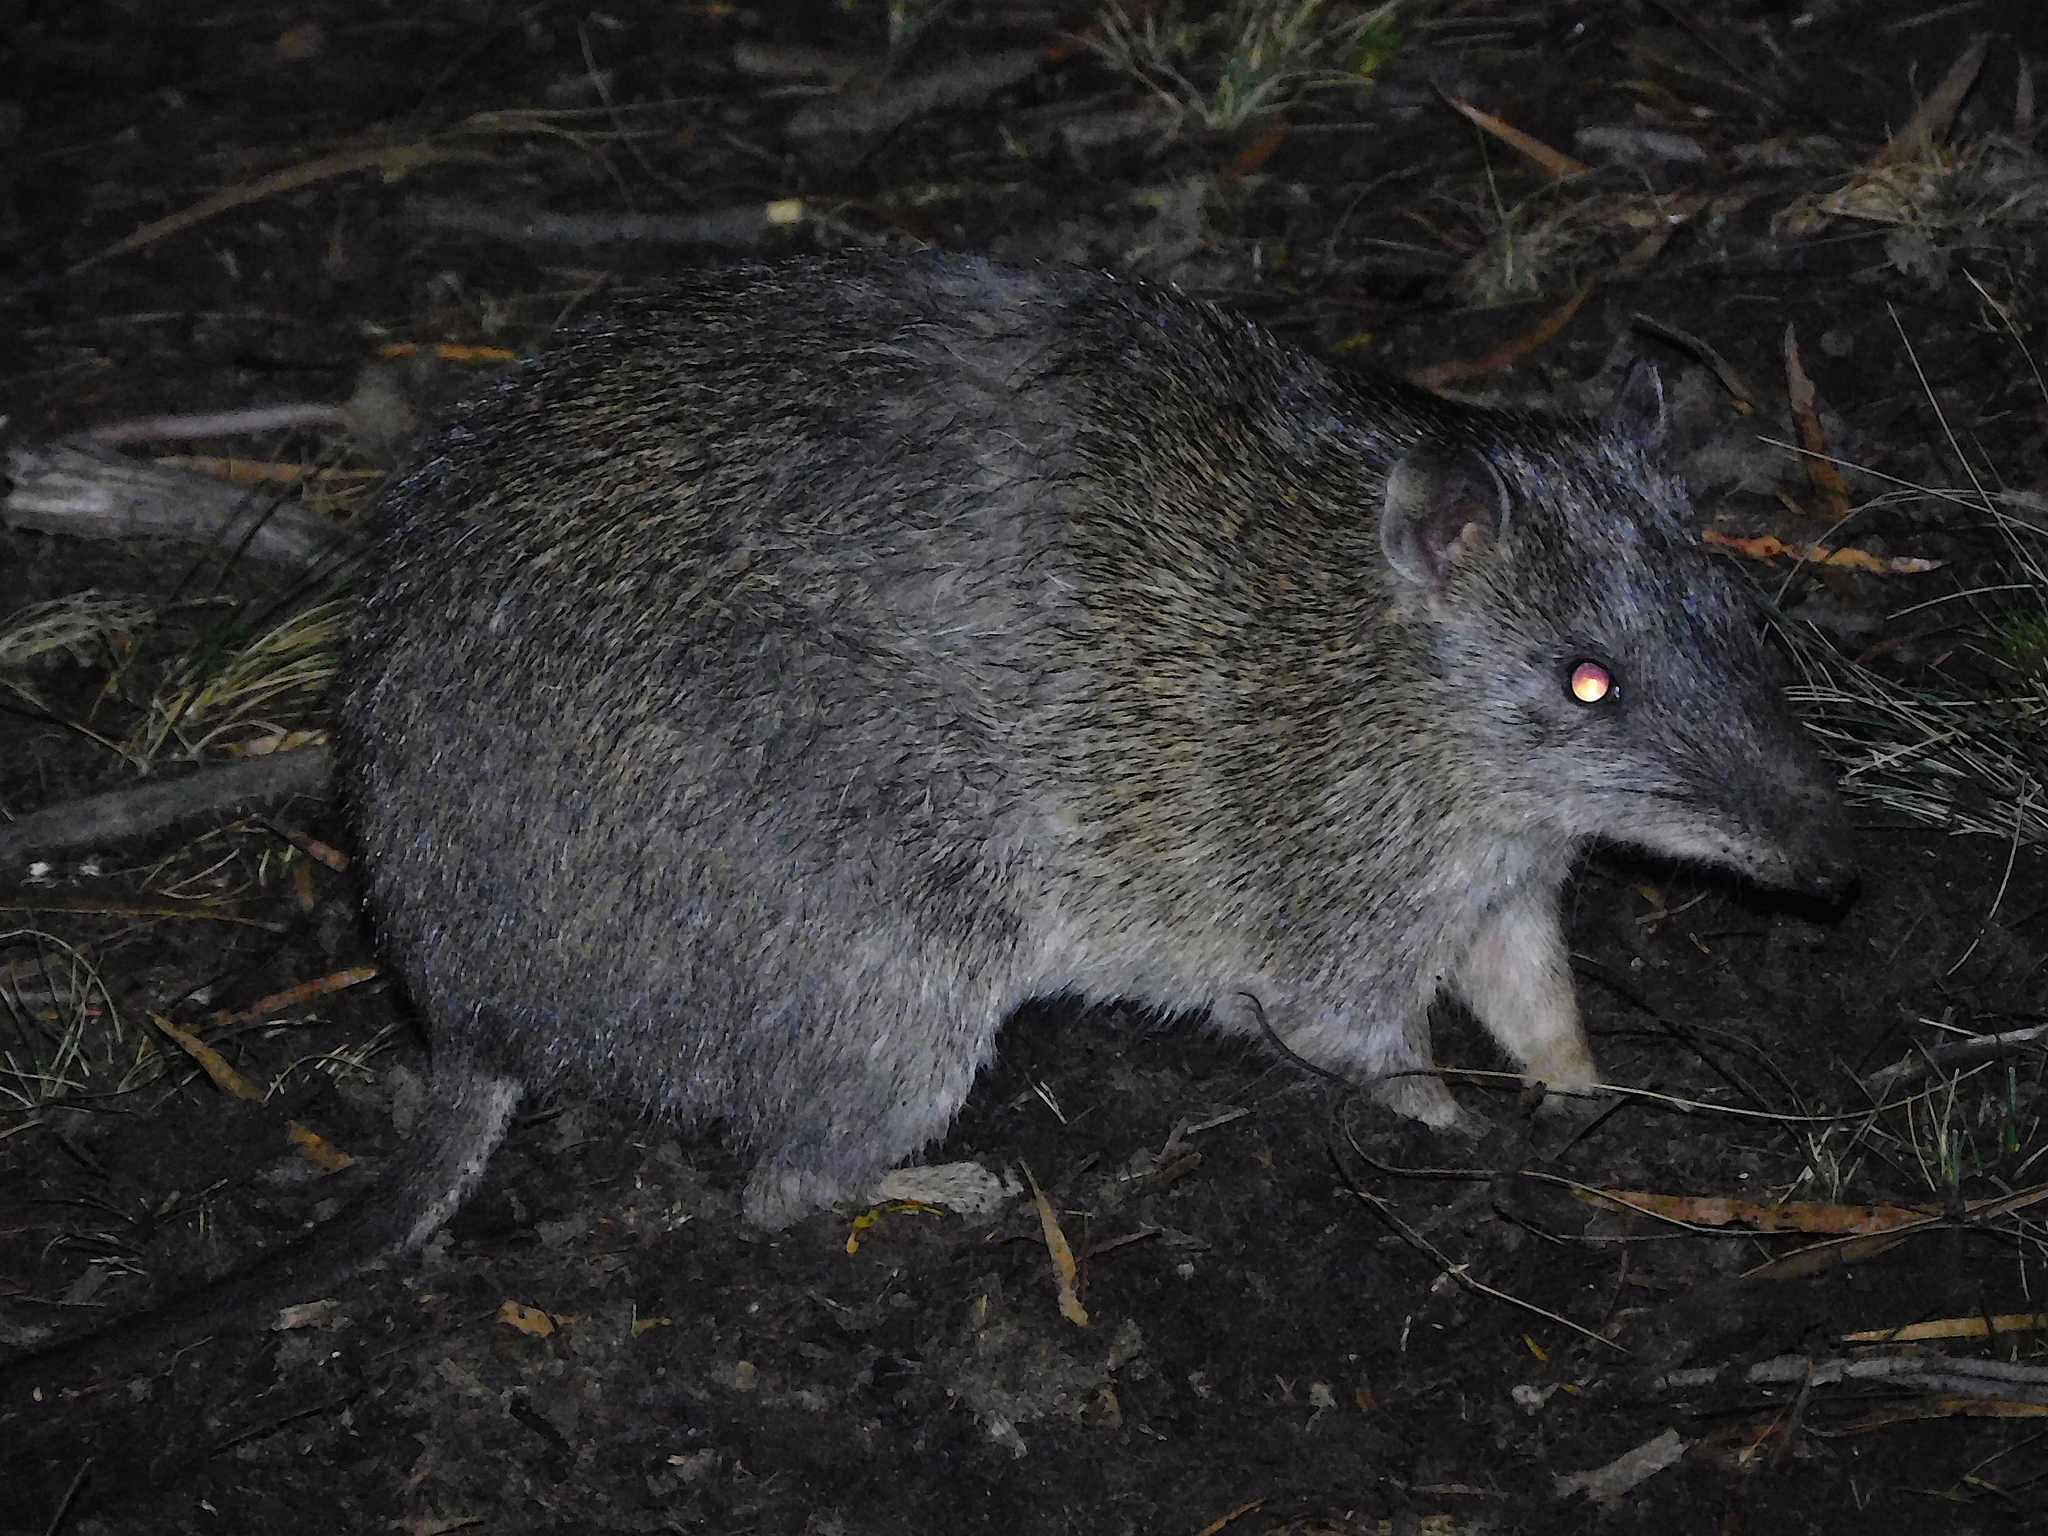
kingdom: Animalia
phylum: Chordata
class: Mammalia
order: Peramelemorphia
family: Peramelidae
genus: Isoodon
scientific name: Isoodon obesulus
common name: Southern brown bandicoot
